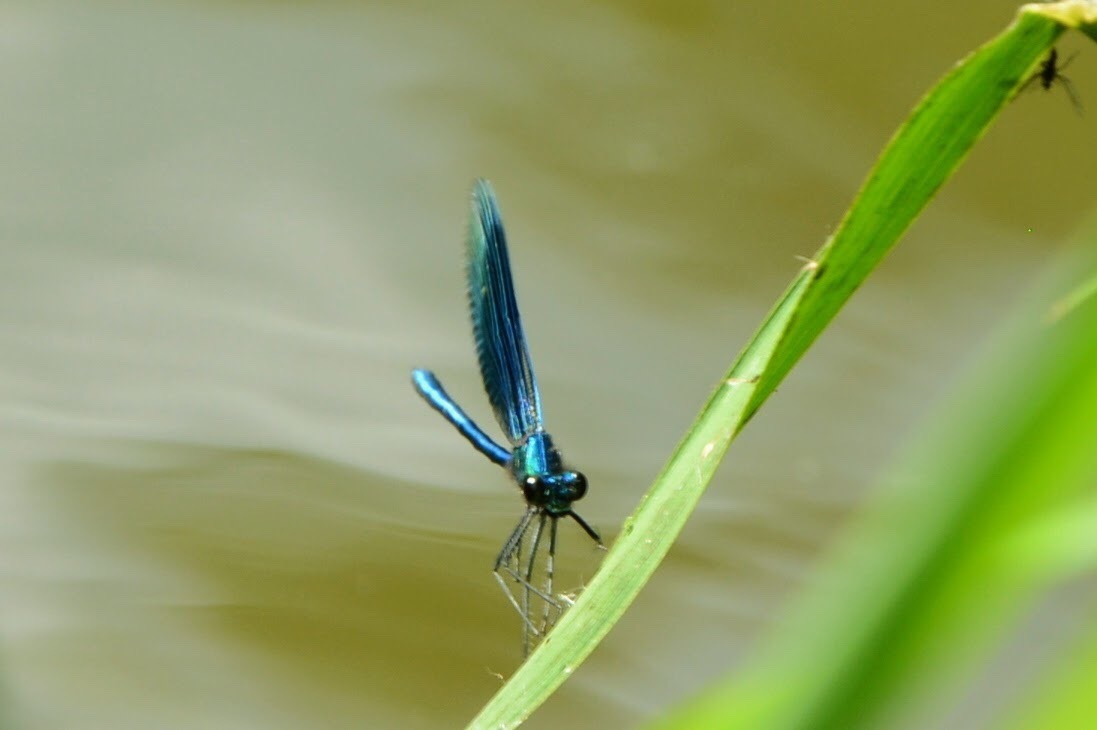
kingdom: Animalia
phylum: Arthropoda
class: Insecta
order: Odonata
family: Calopterygidae
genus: Calopteryx
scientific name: Calopteryx splendens
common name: Banded demoiselle
